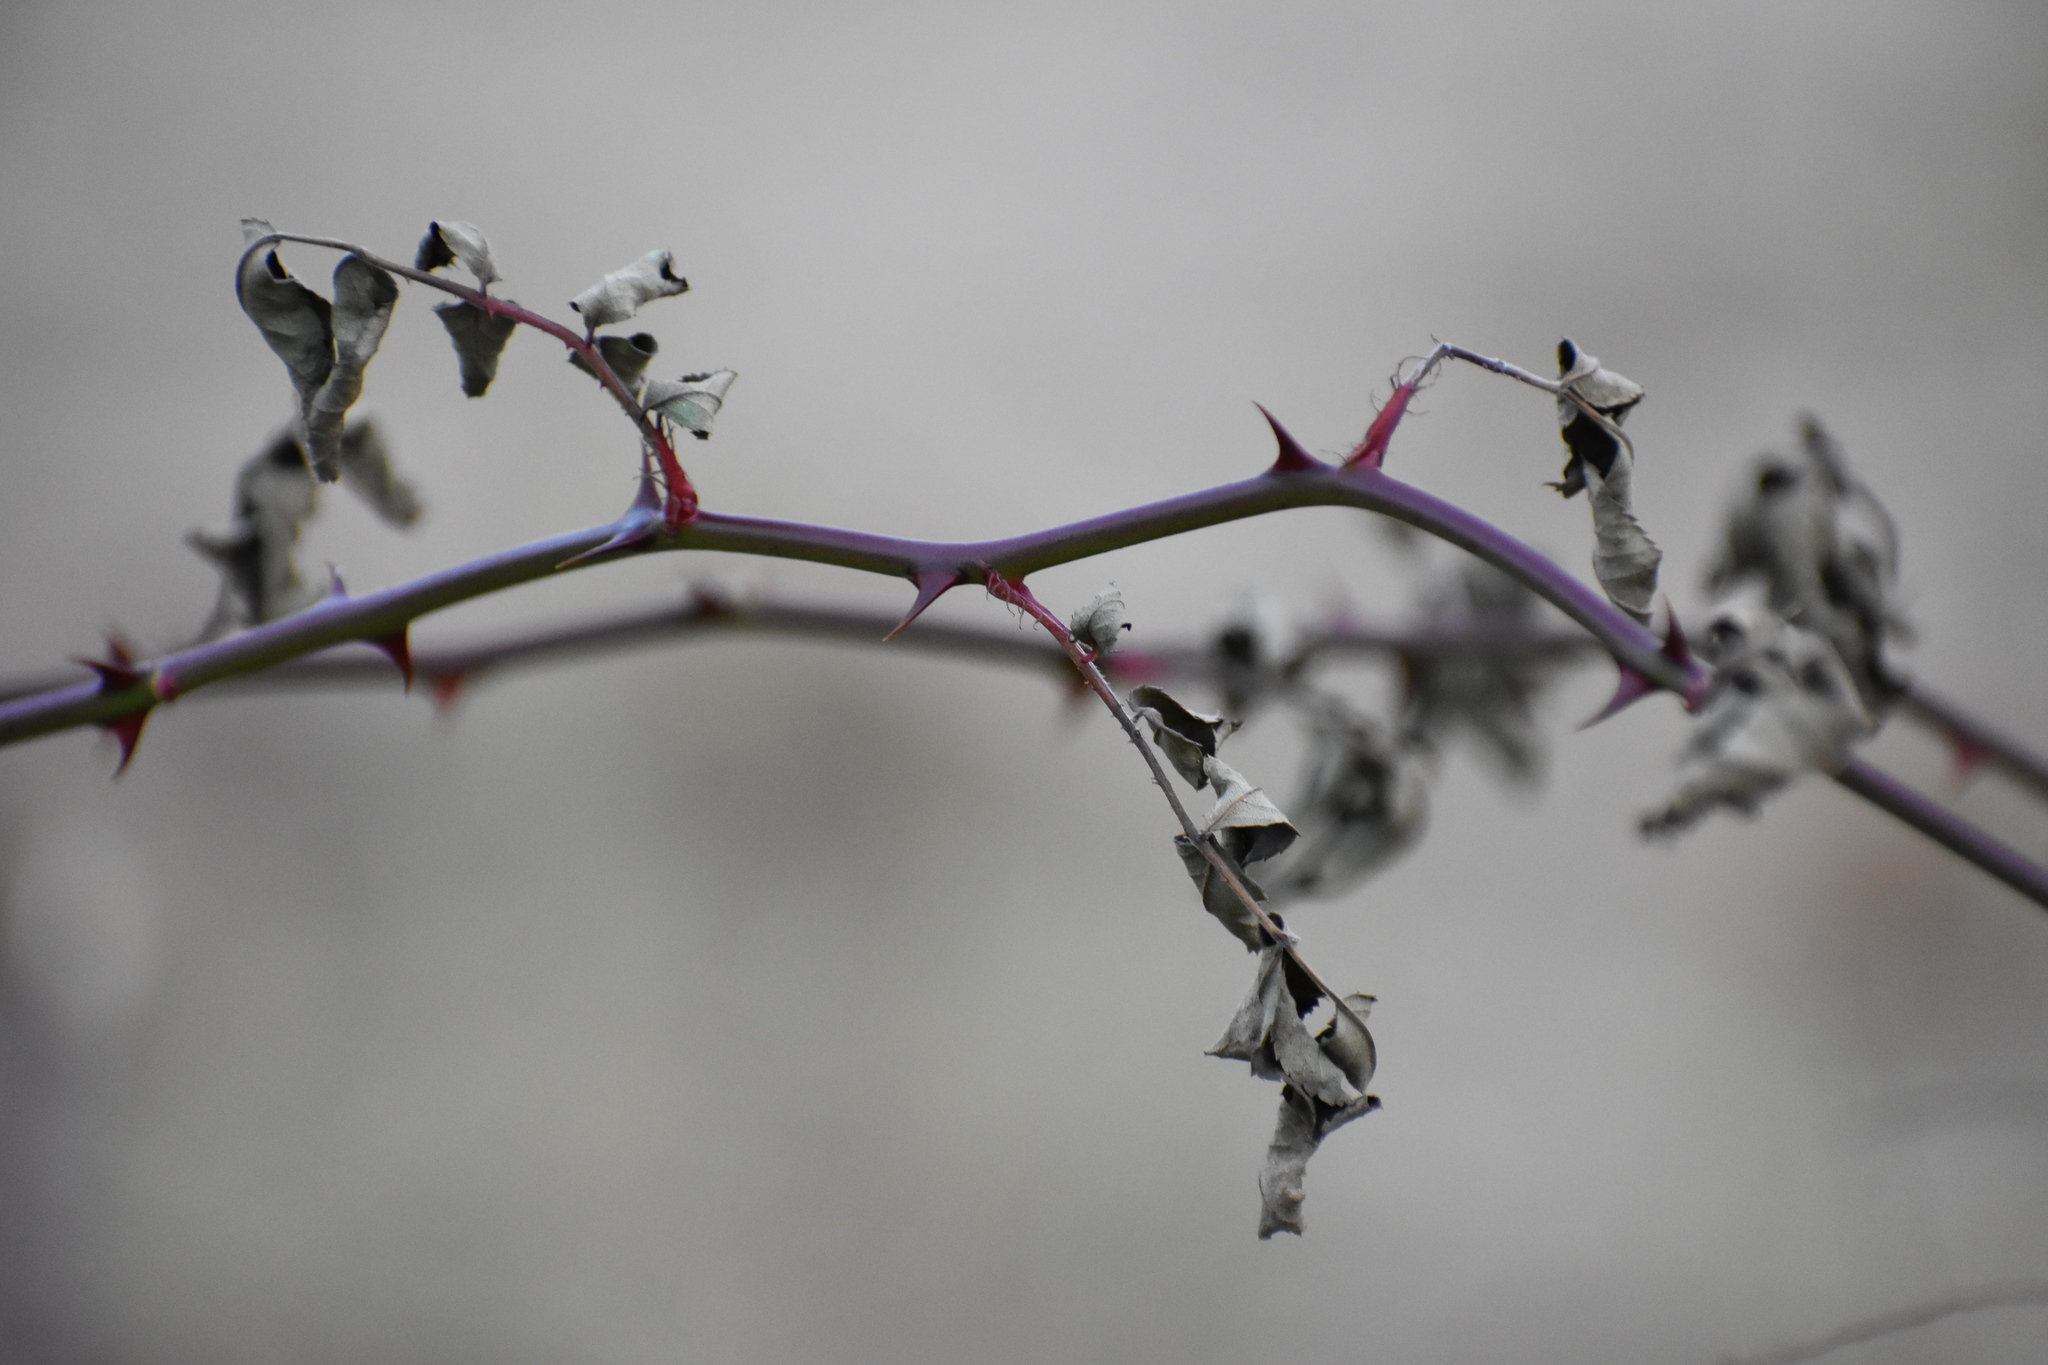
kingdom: Plantae
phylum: Tracheophyta
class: Magnoliopsida
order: Rosales
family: Rosaceae
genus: Rosa
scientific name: Rosa multiflora
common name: Multiflora rose
